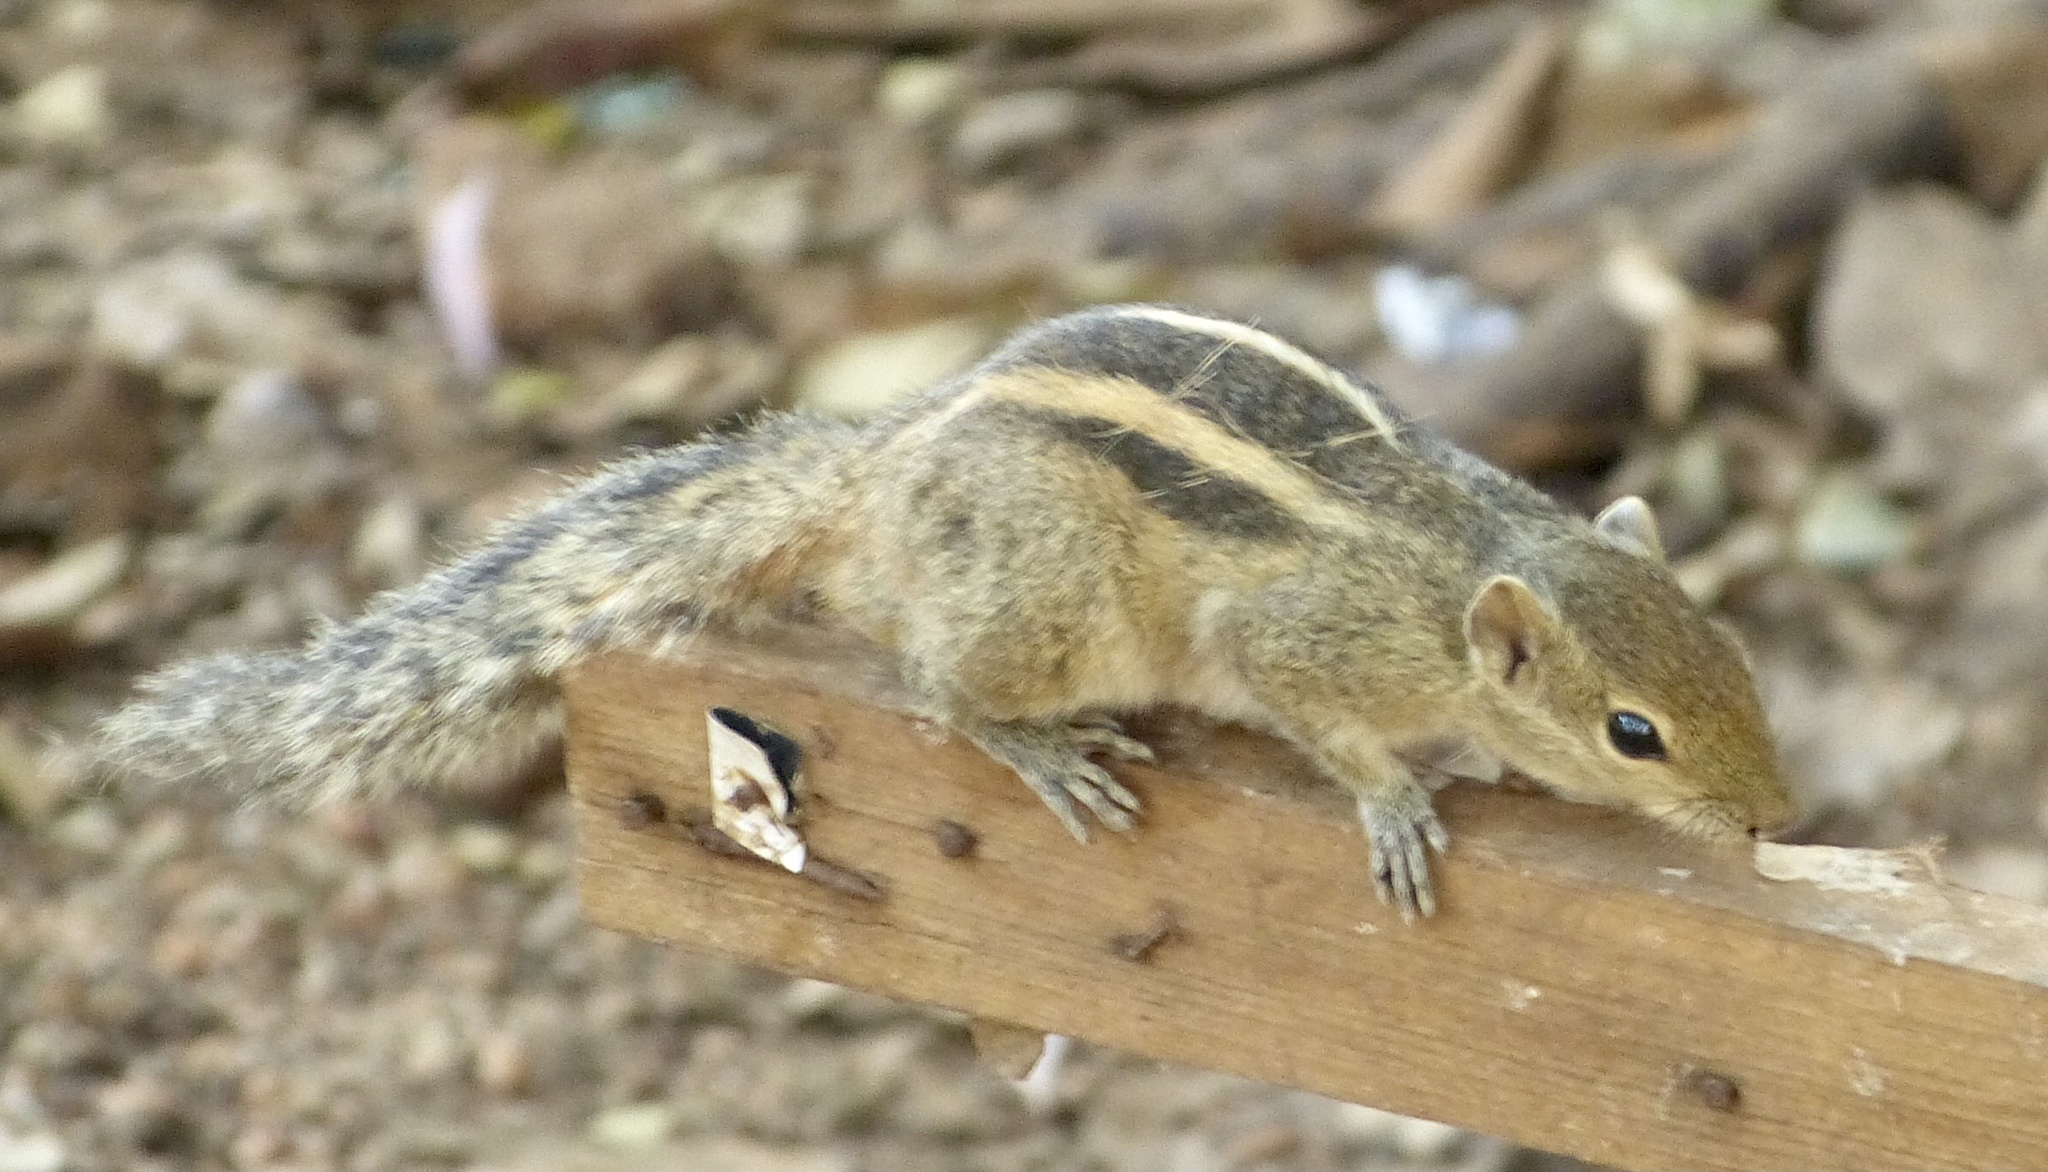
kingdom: Animalia
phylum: Chordata
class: Mammalia
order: Rodentia
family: Sciuridae
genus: Funambulus
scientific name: Funambulus palmarum
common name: Indian palm squirrel
